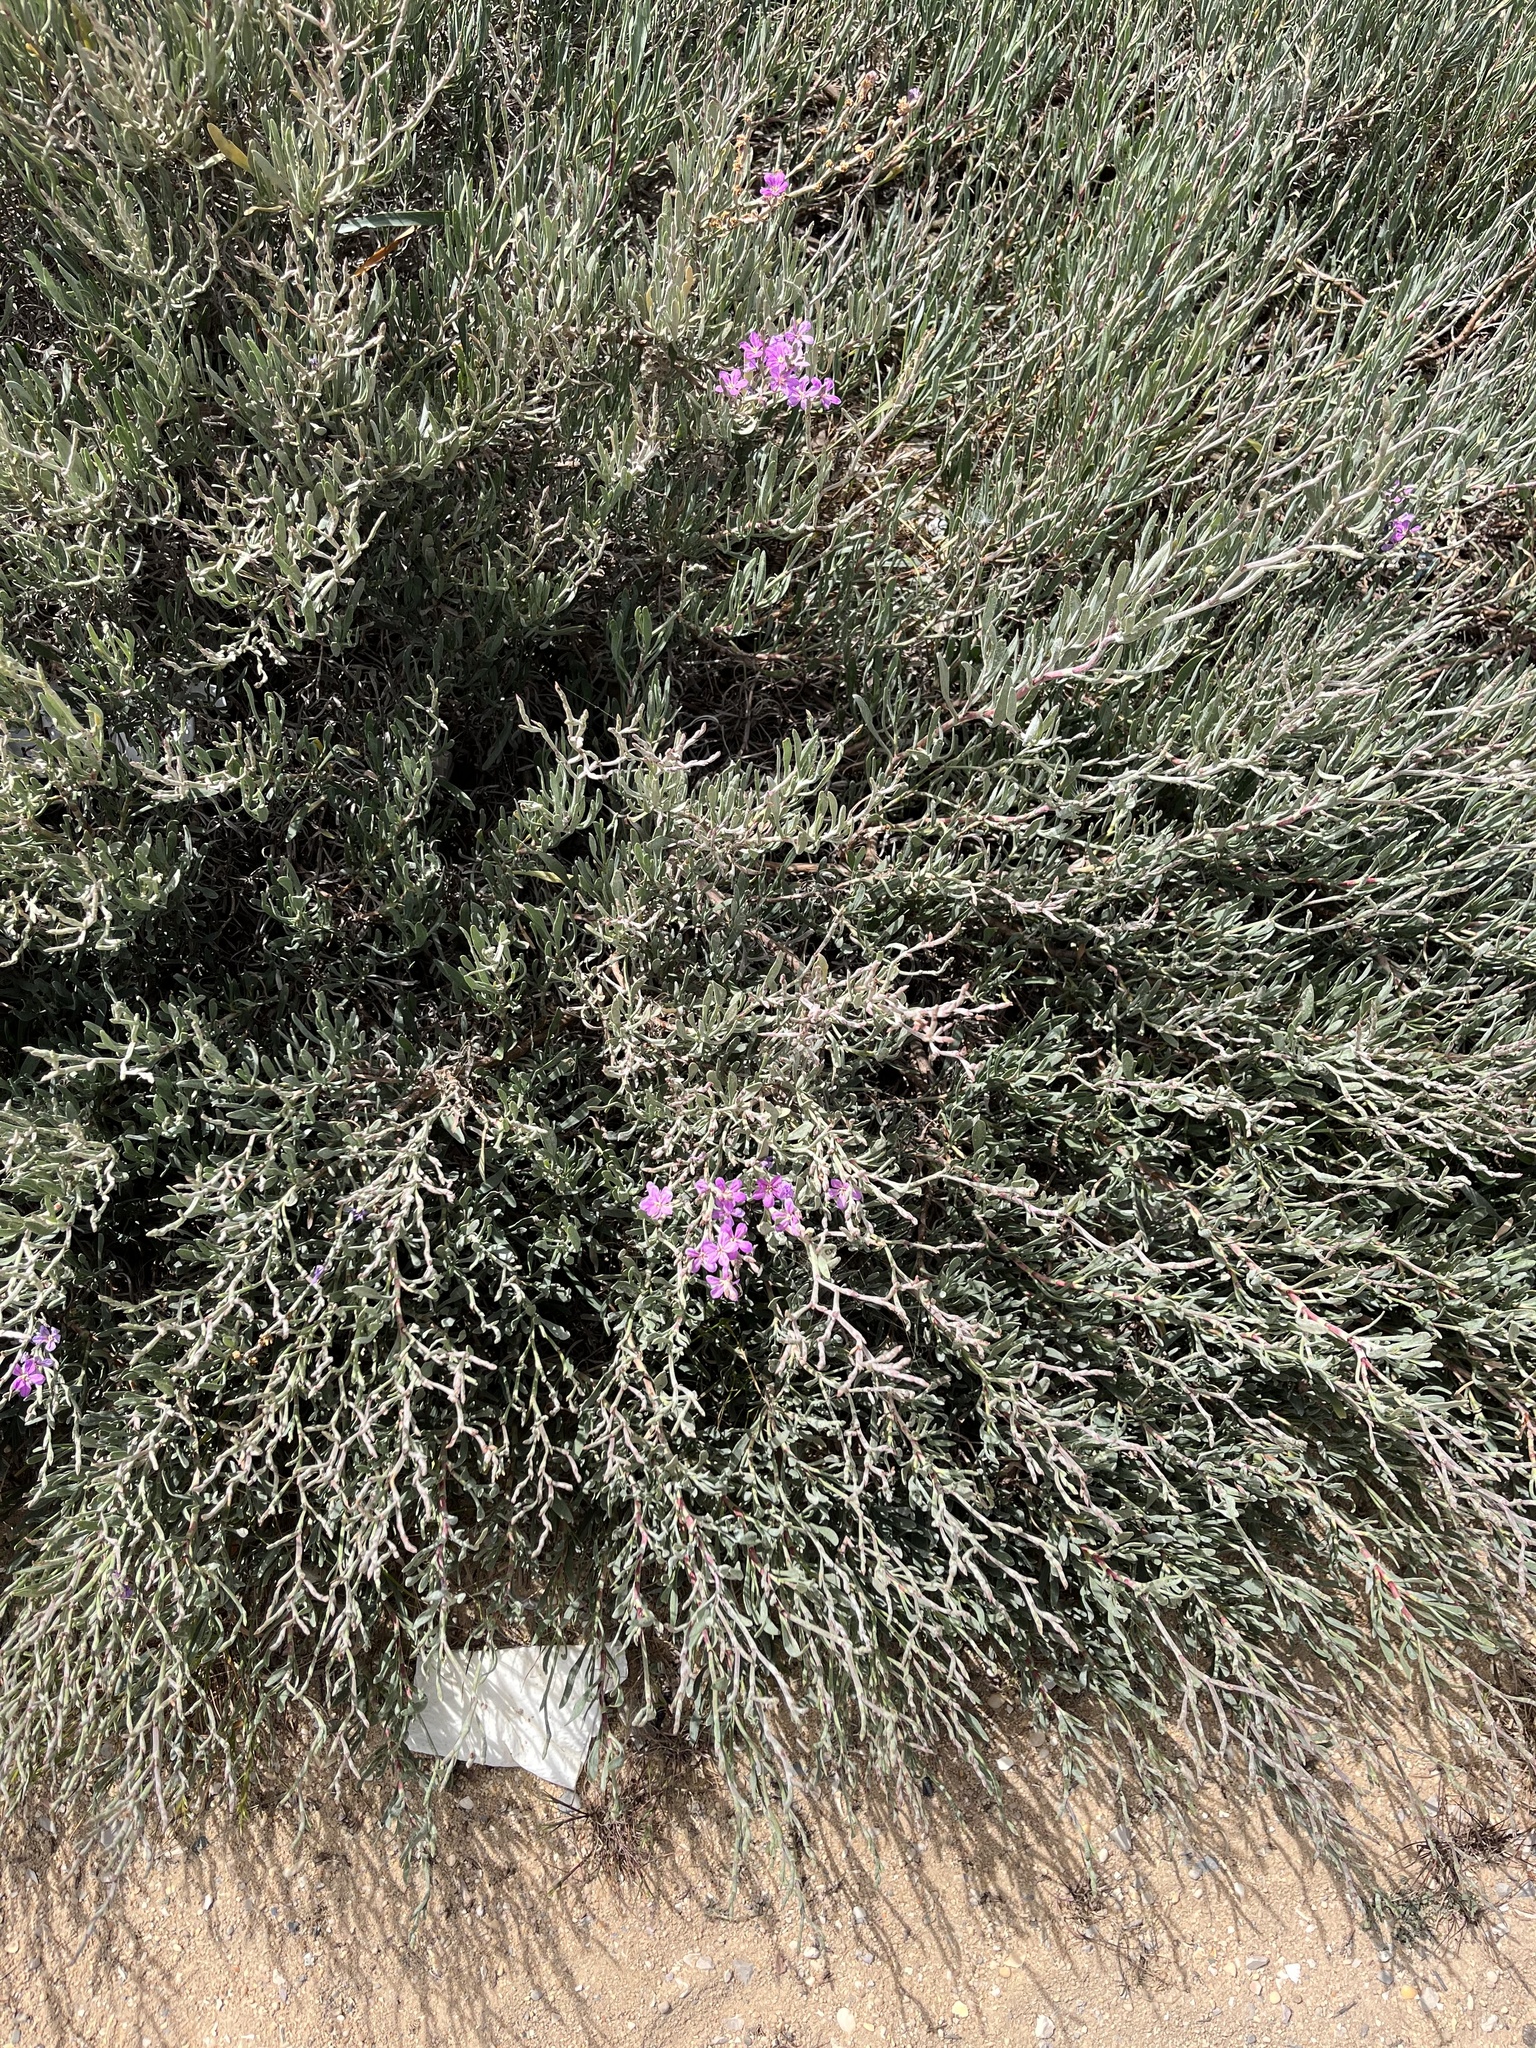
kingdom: Plantae
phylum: Tracheophyta
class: Magnoliopsida
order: Caryophyllales
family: Plumbaginaceae
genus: Limoniastrum
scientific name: Limoniastrum monopetalum
